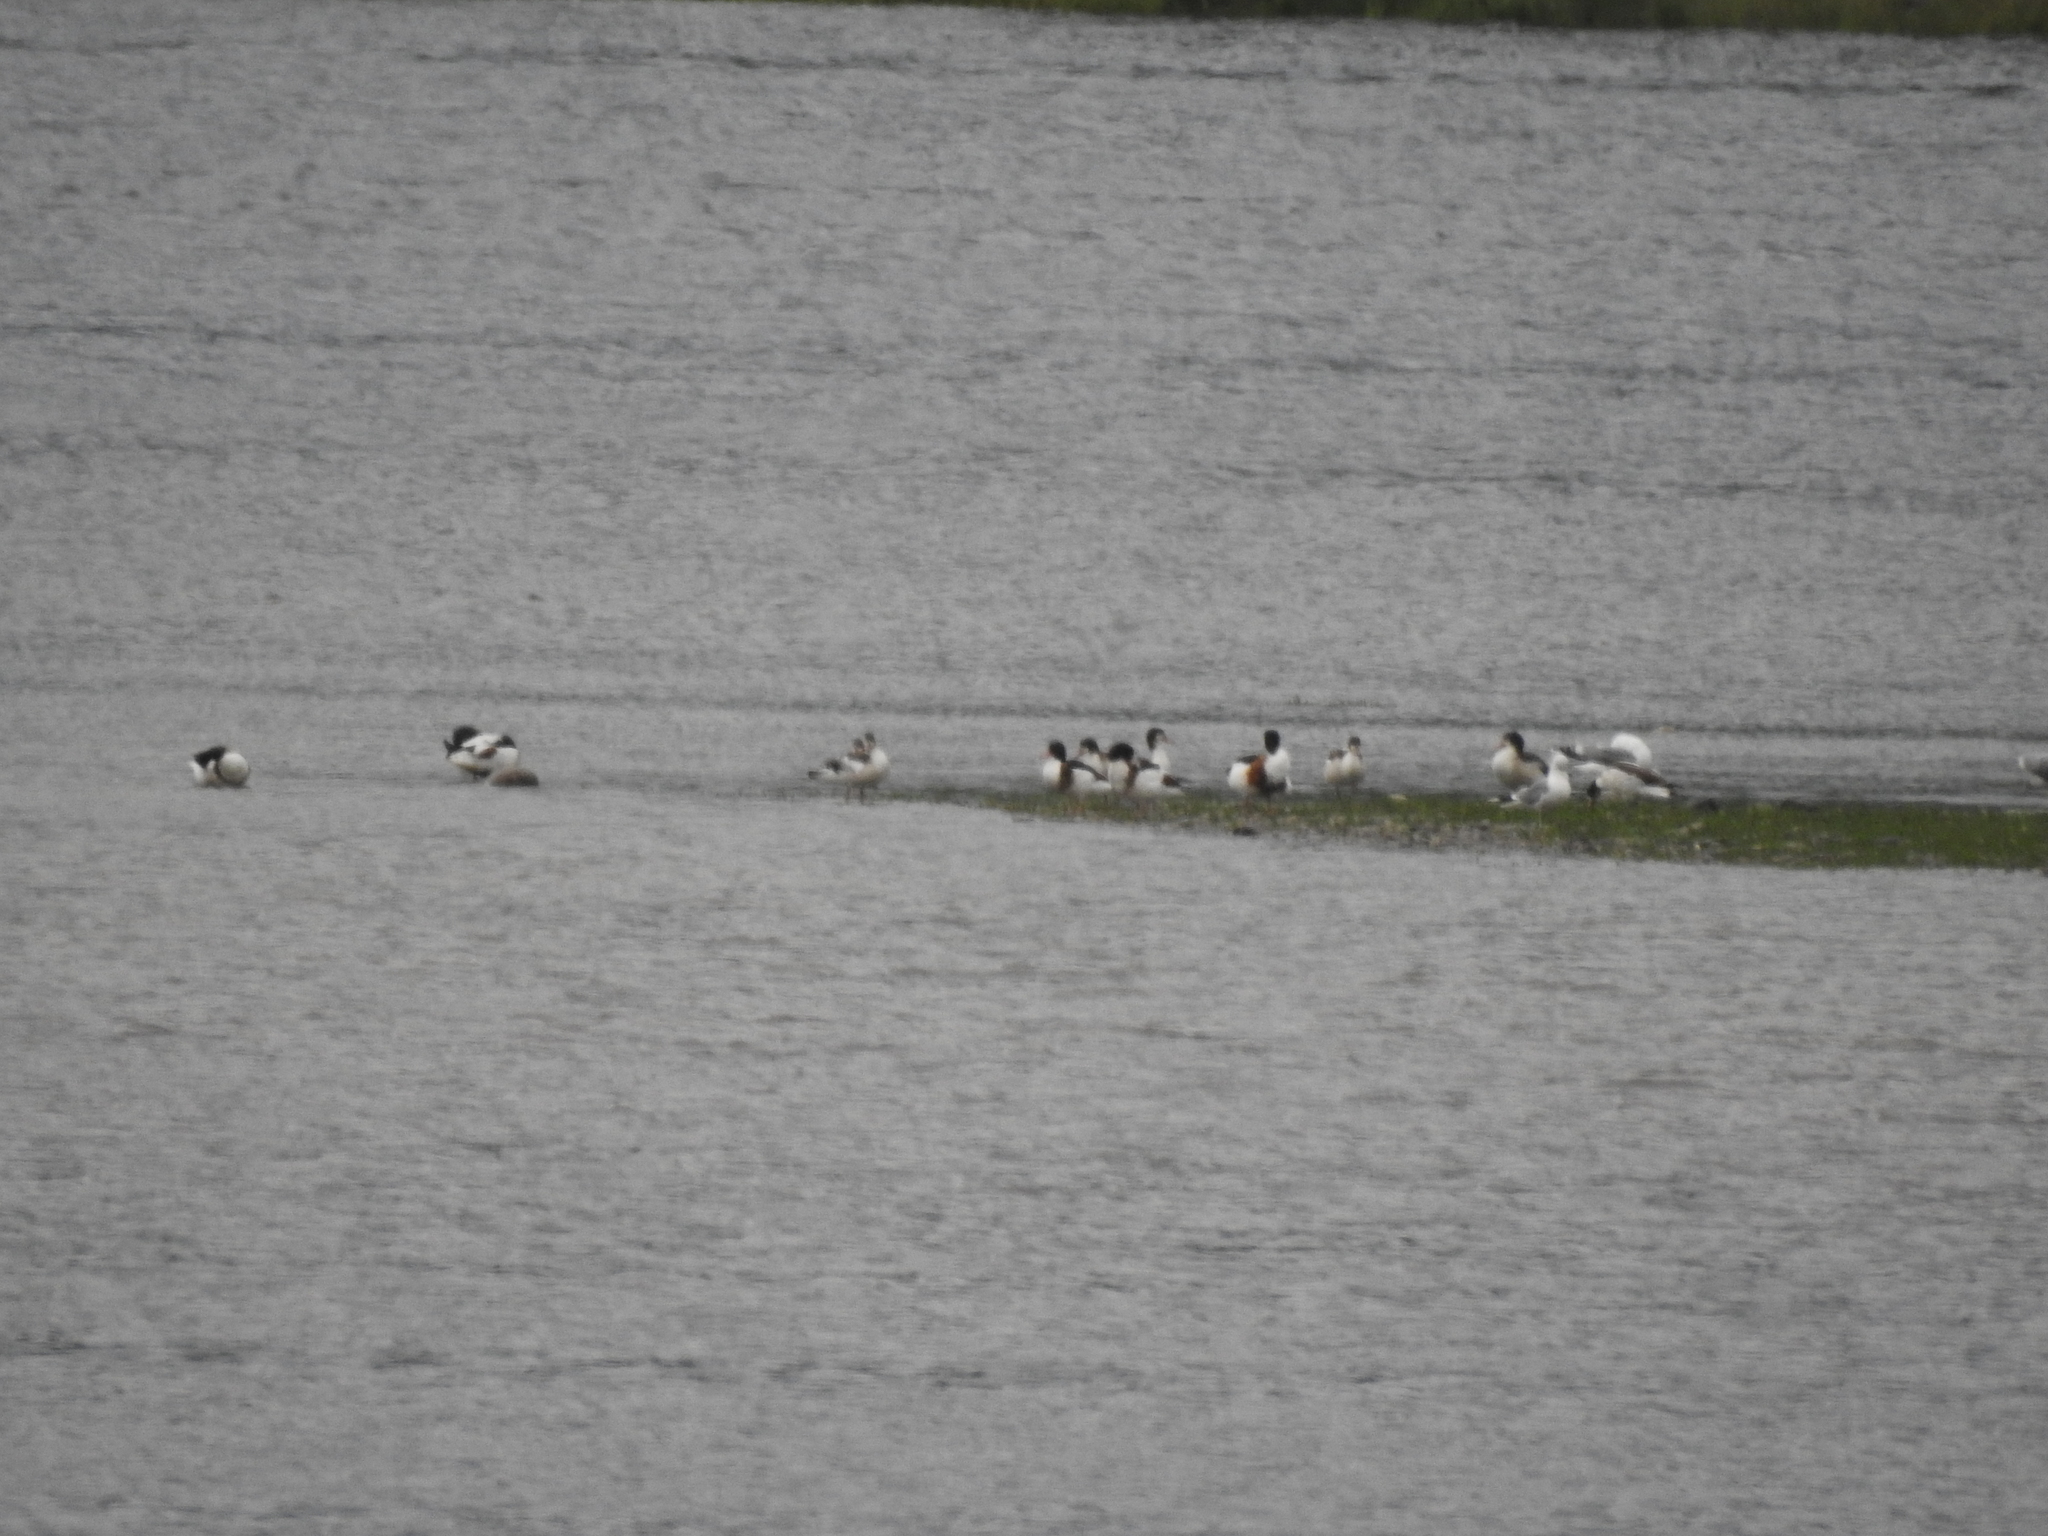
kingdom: Animalia
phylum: Chordata
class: Aves
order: Anseriformes
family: Anatidae
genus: Tadorna
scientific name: Tadorna tadorna
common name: Common shelduck
